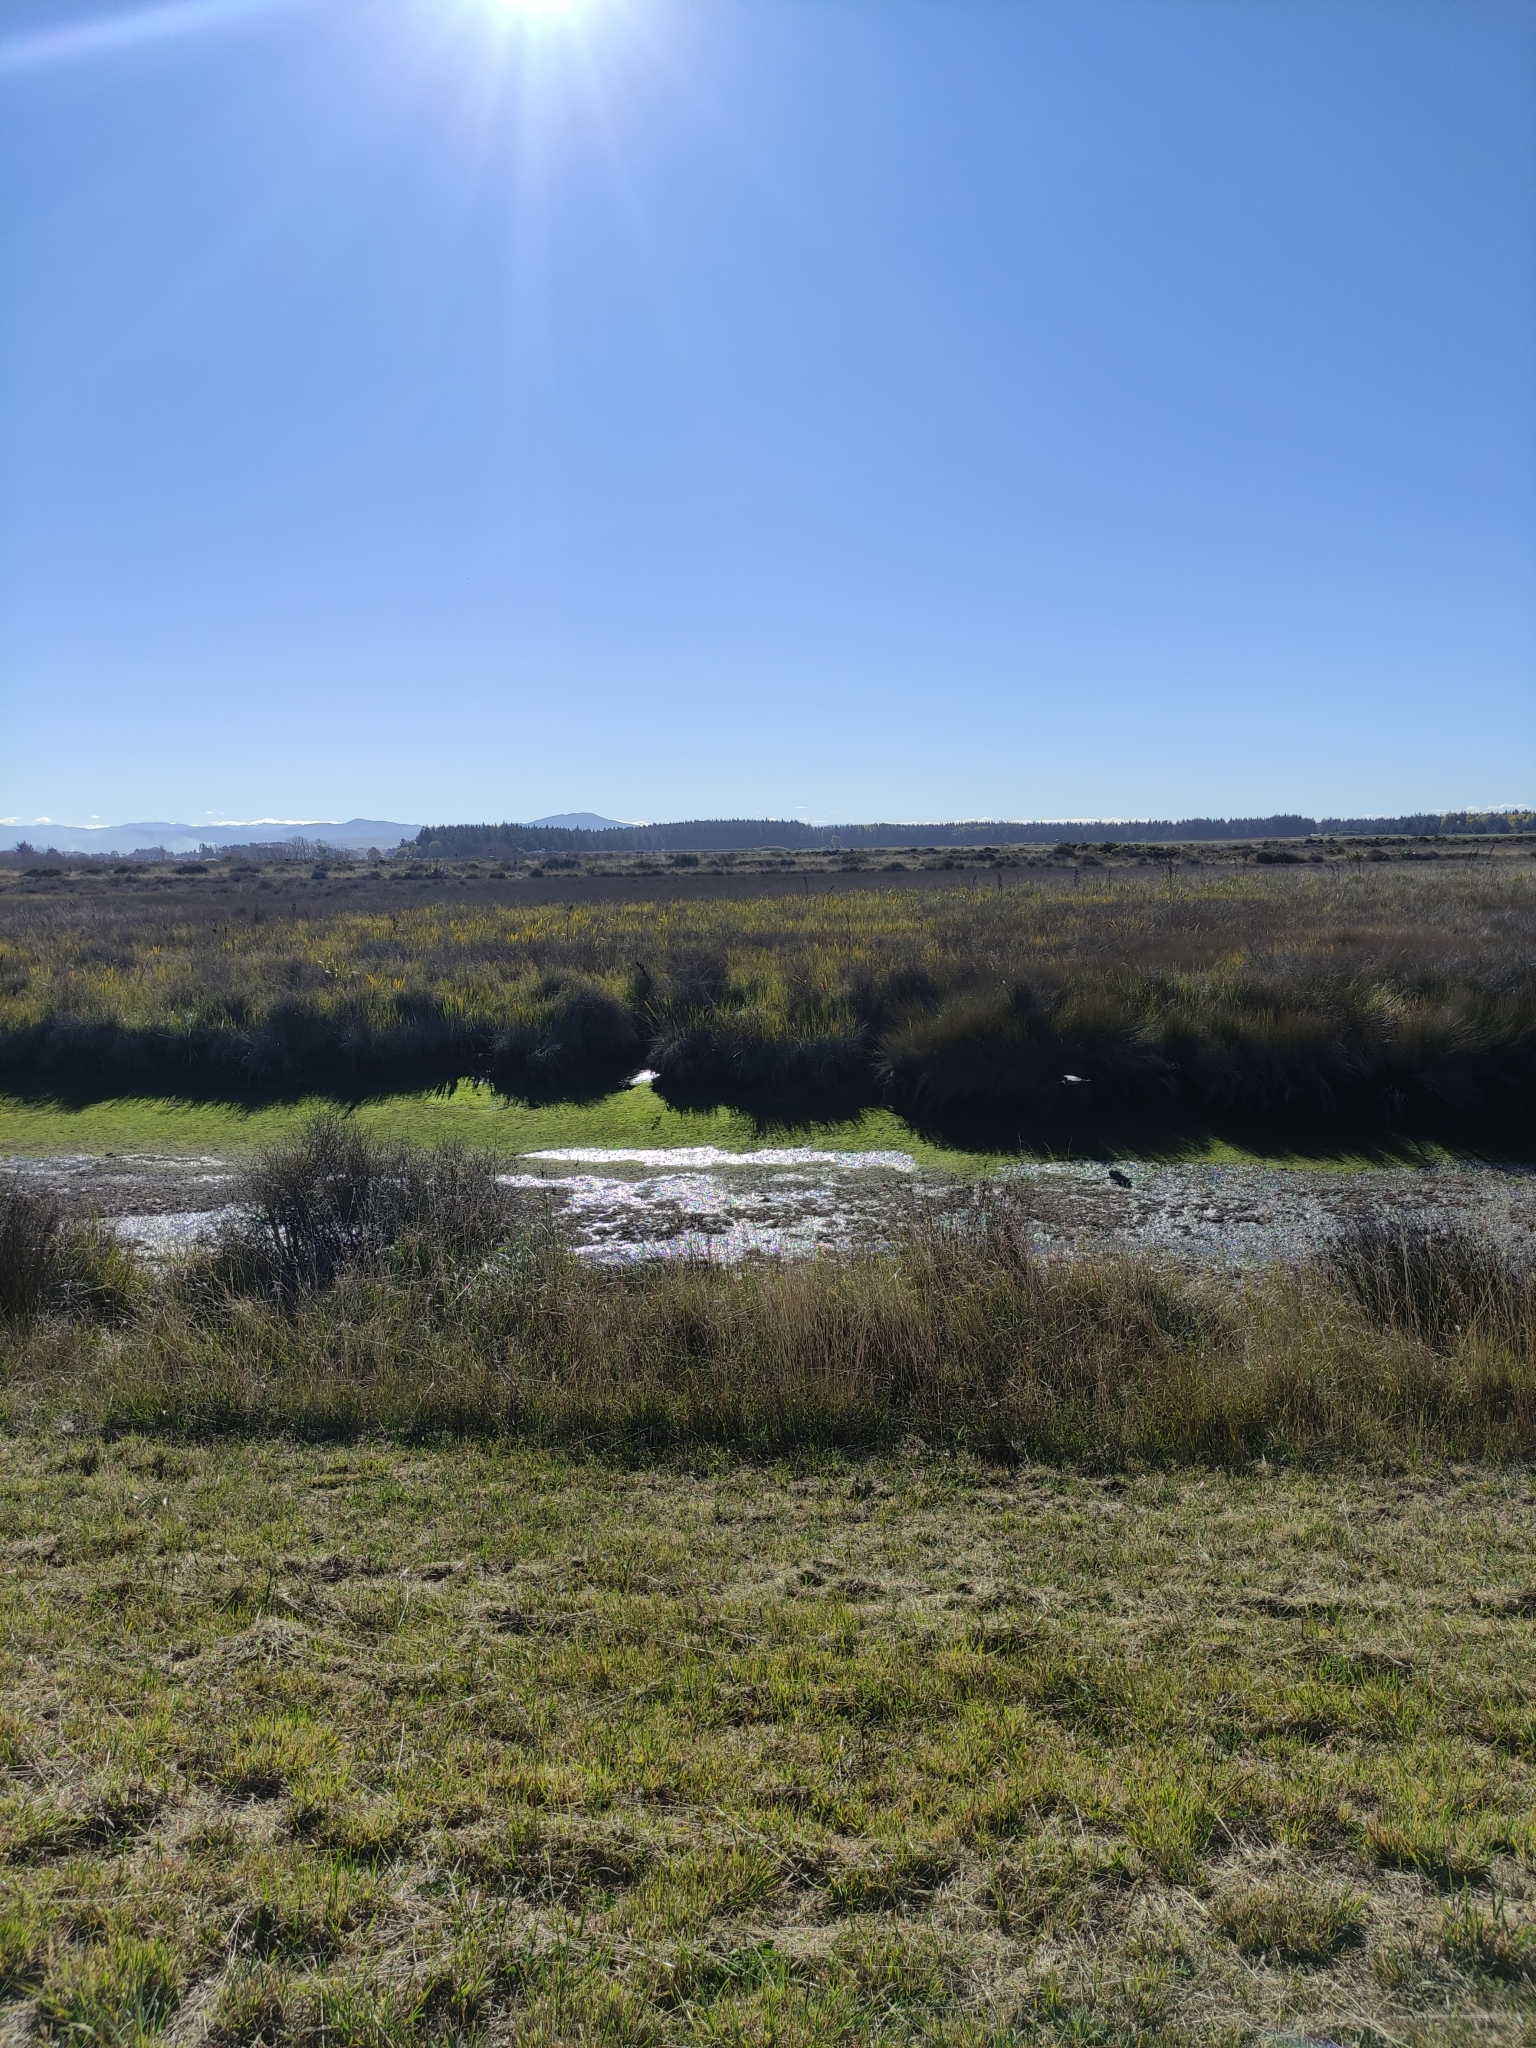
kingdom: Animalia
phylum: Chordata
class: Aves
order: Pelecaniformes
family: Ardeidae
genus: Egretta
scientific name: Egretta novaehollandiae
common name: White-faced heron
